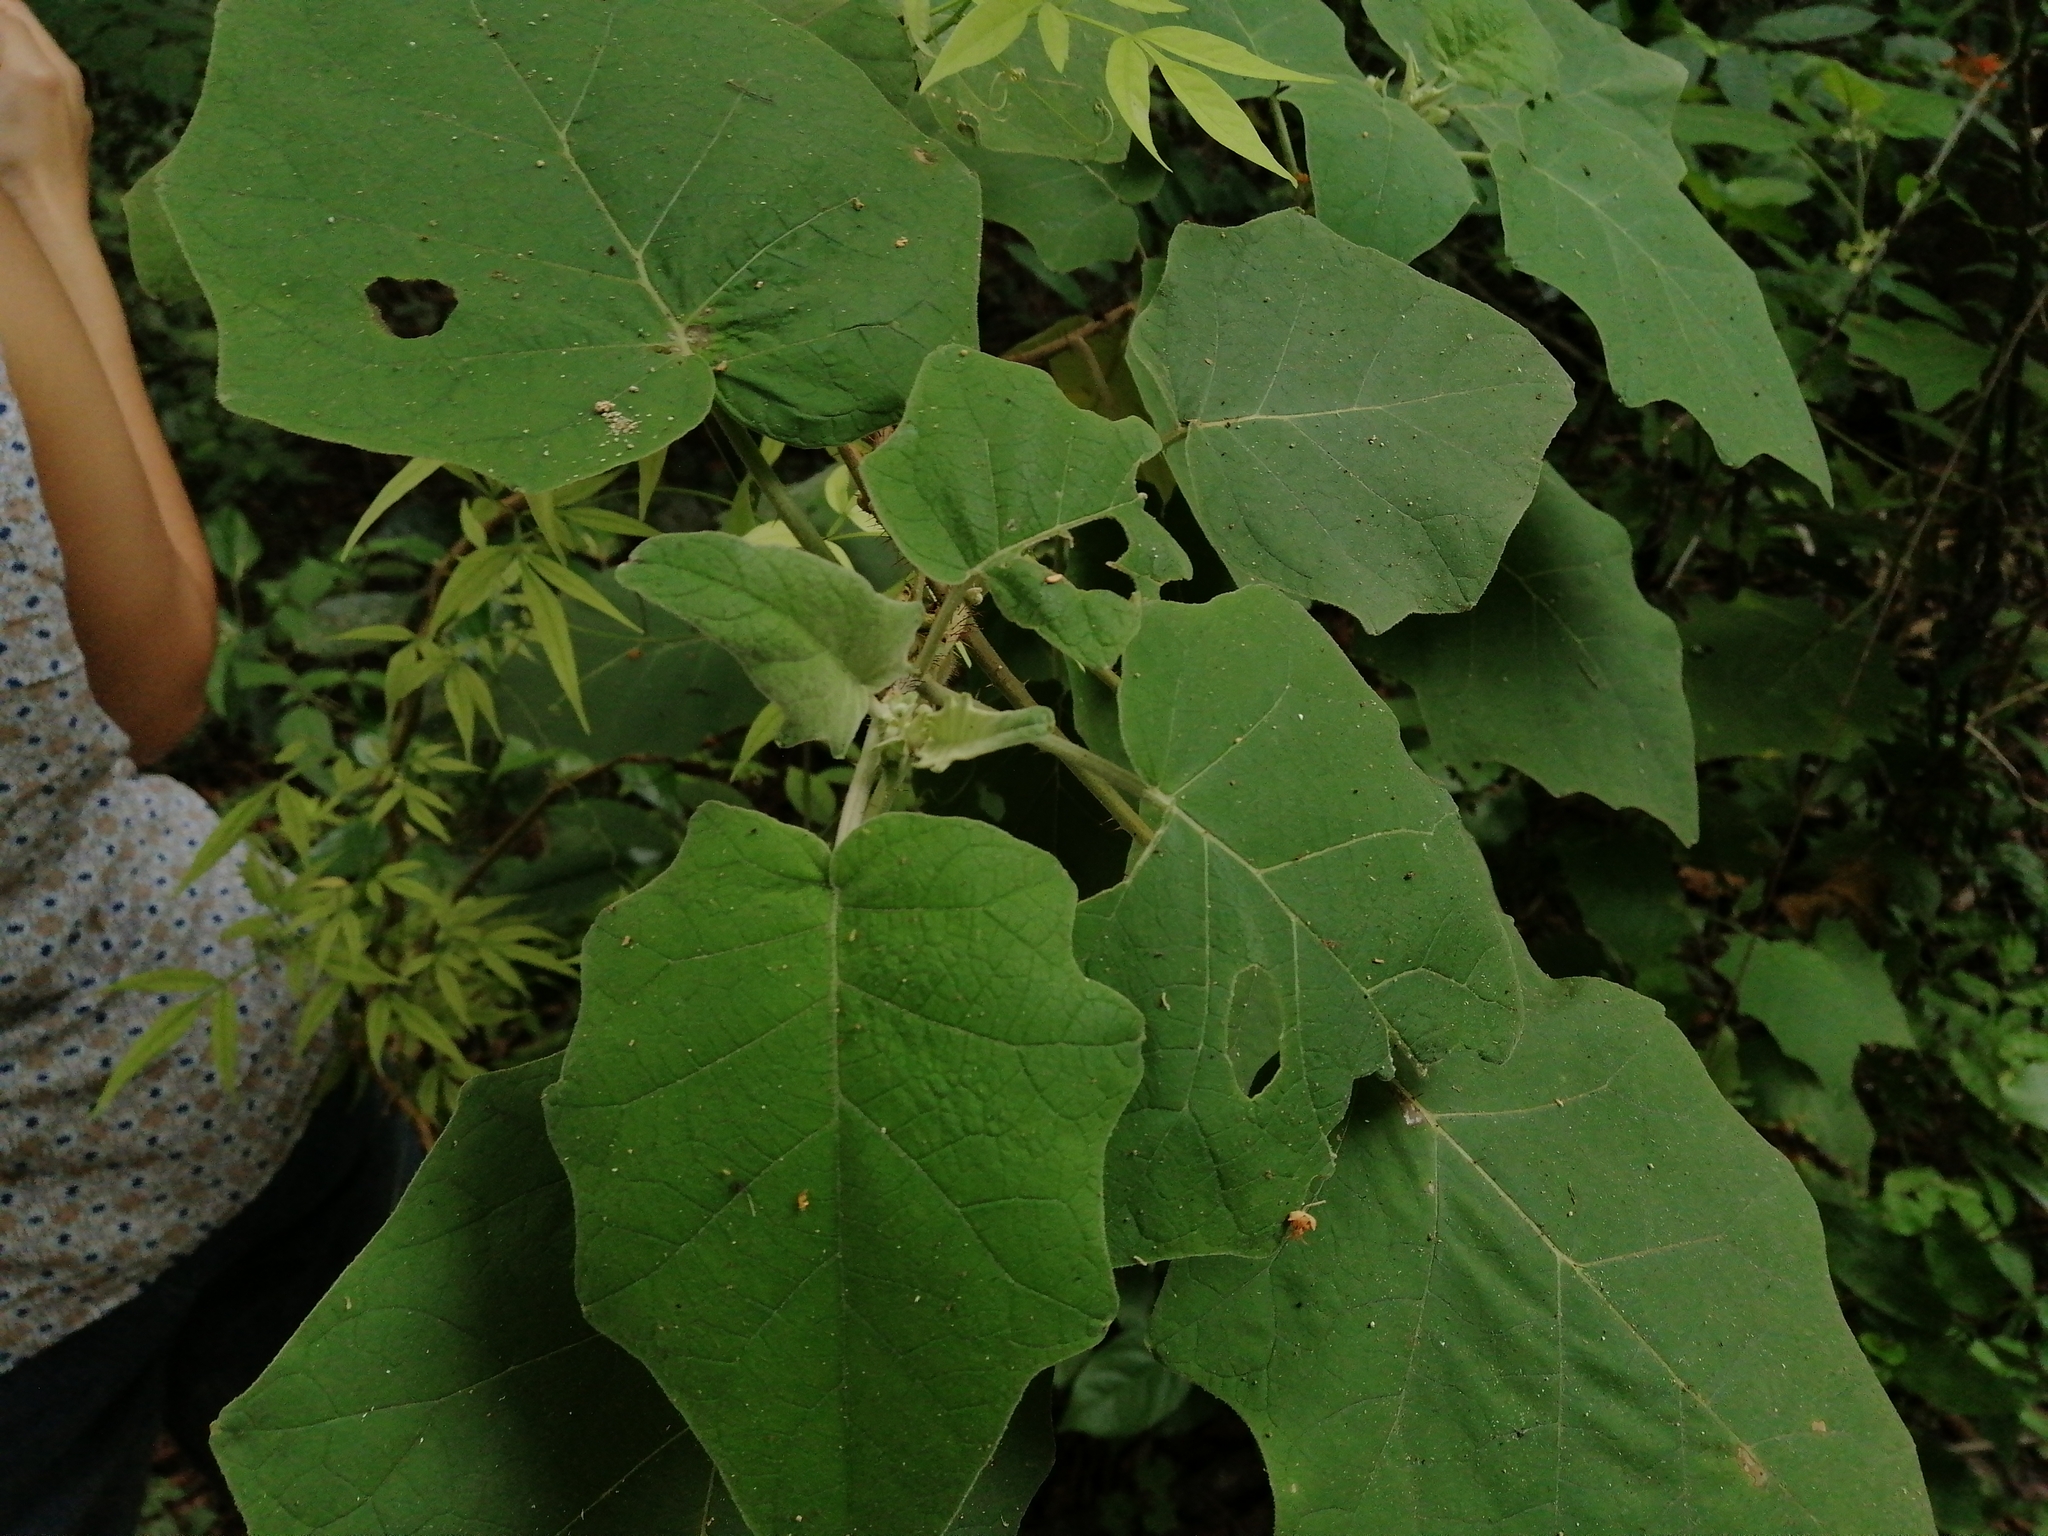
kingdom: Plantae
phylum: Tracheophyta
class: Magnoliopsida
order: Solanales
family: Solanaceae
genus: Solanum
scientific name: Solanum hirtum
